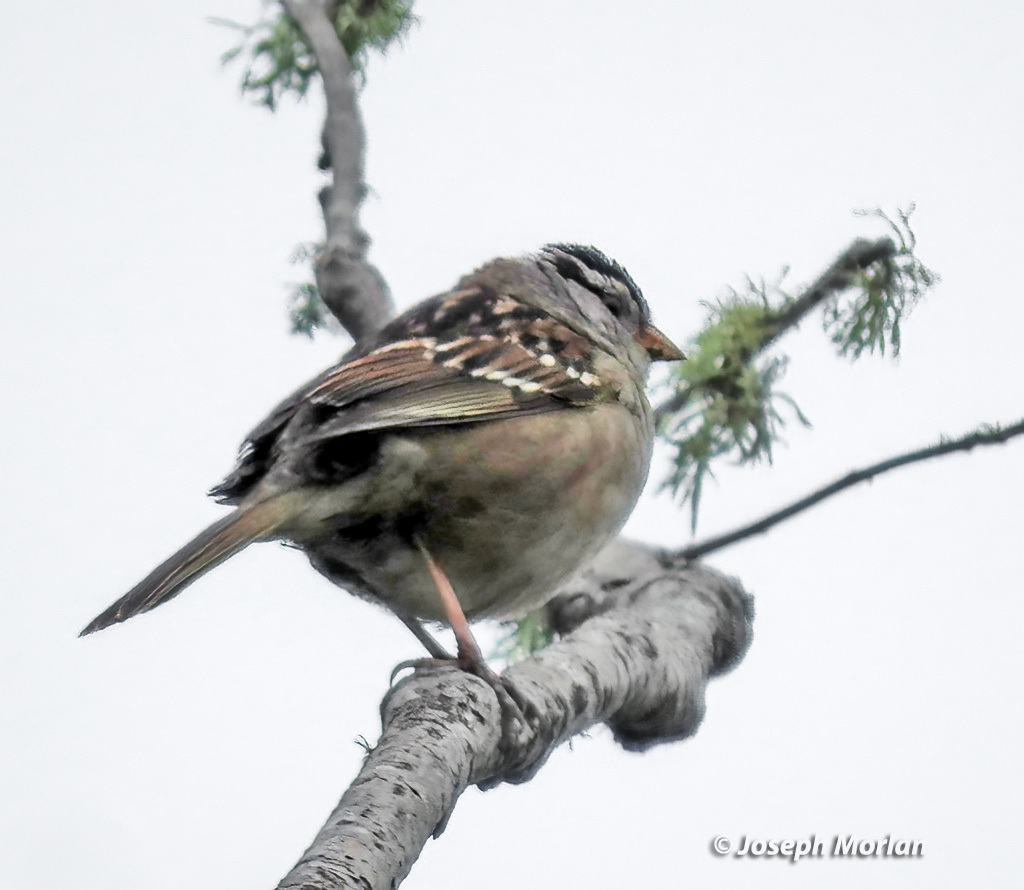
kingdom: Animalia
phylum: Chordata
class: Aves
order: Passeriformes
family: Passerellidae
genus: Zonotrichia
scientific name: Zonotrichia leucophrys
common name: White-crowned sparrow
